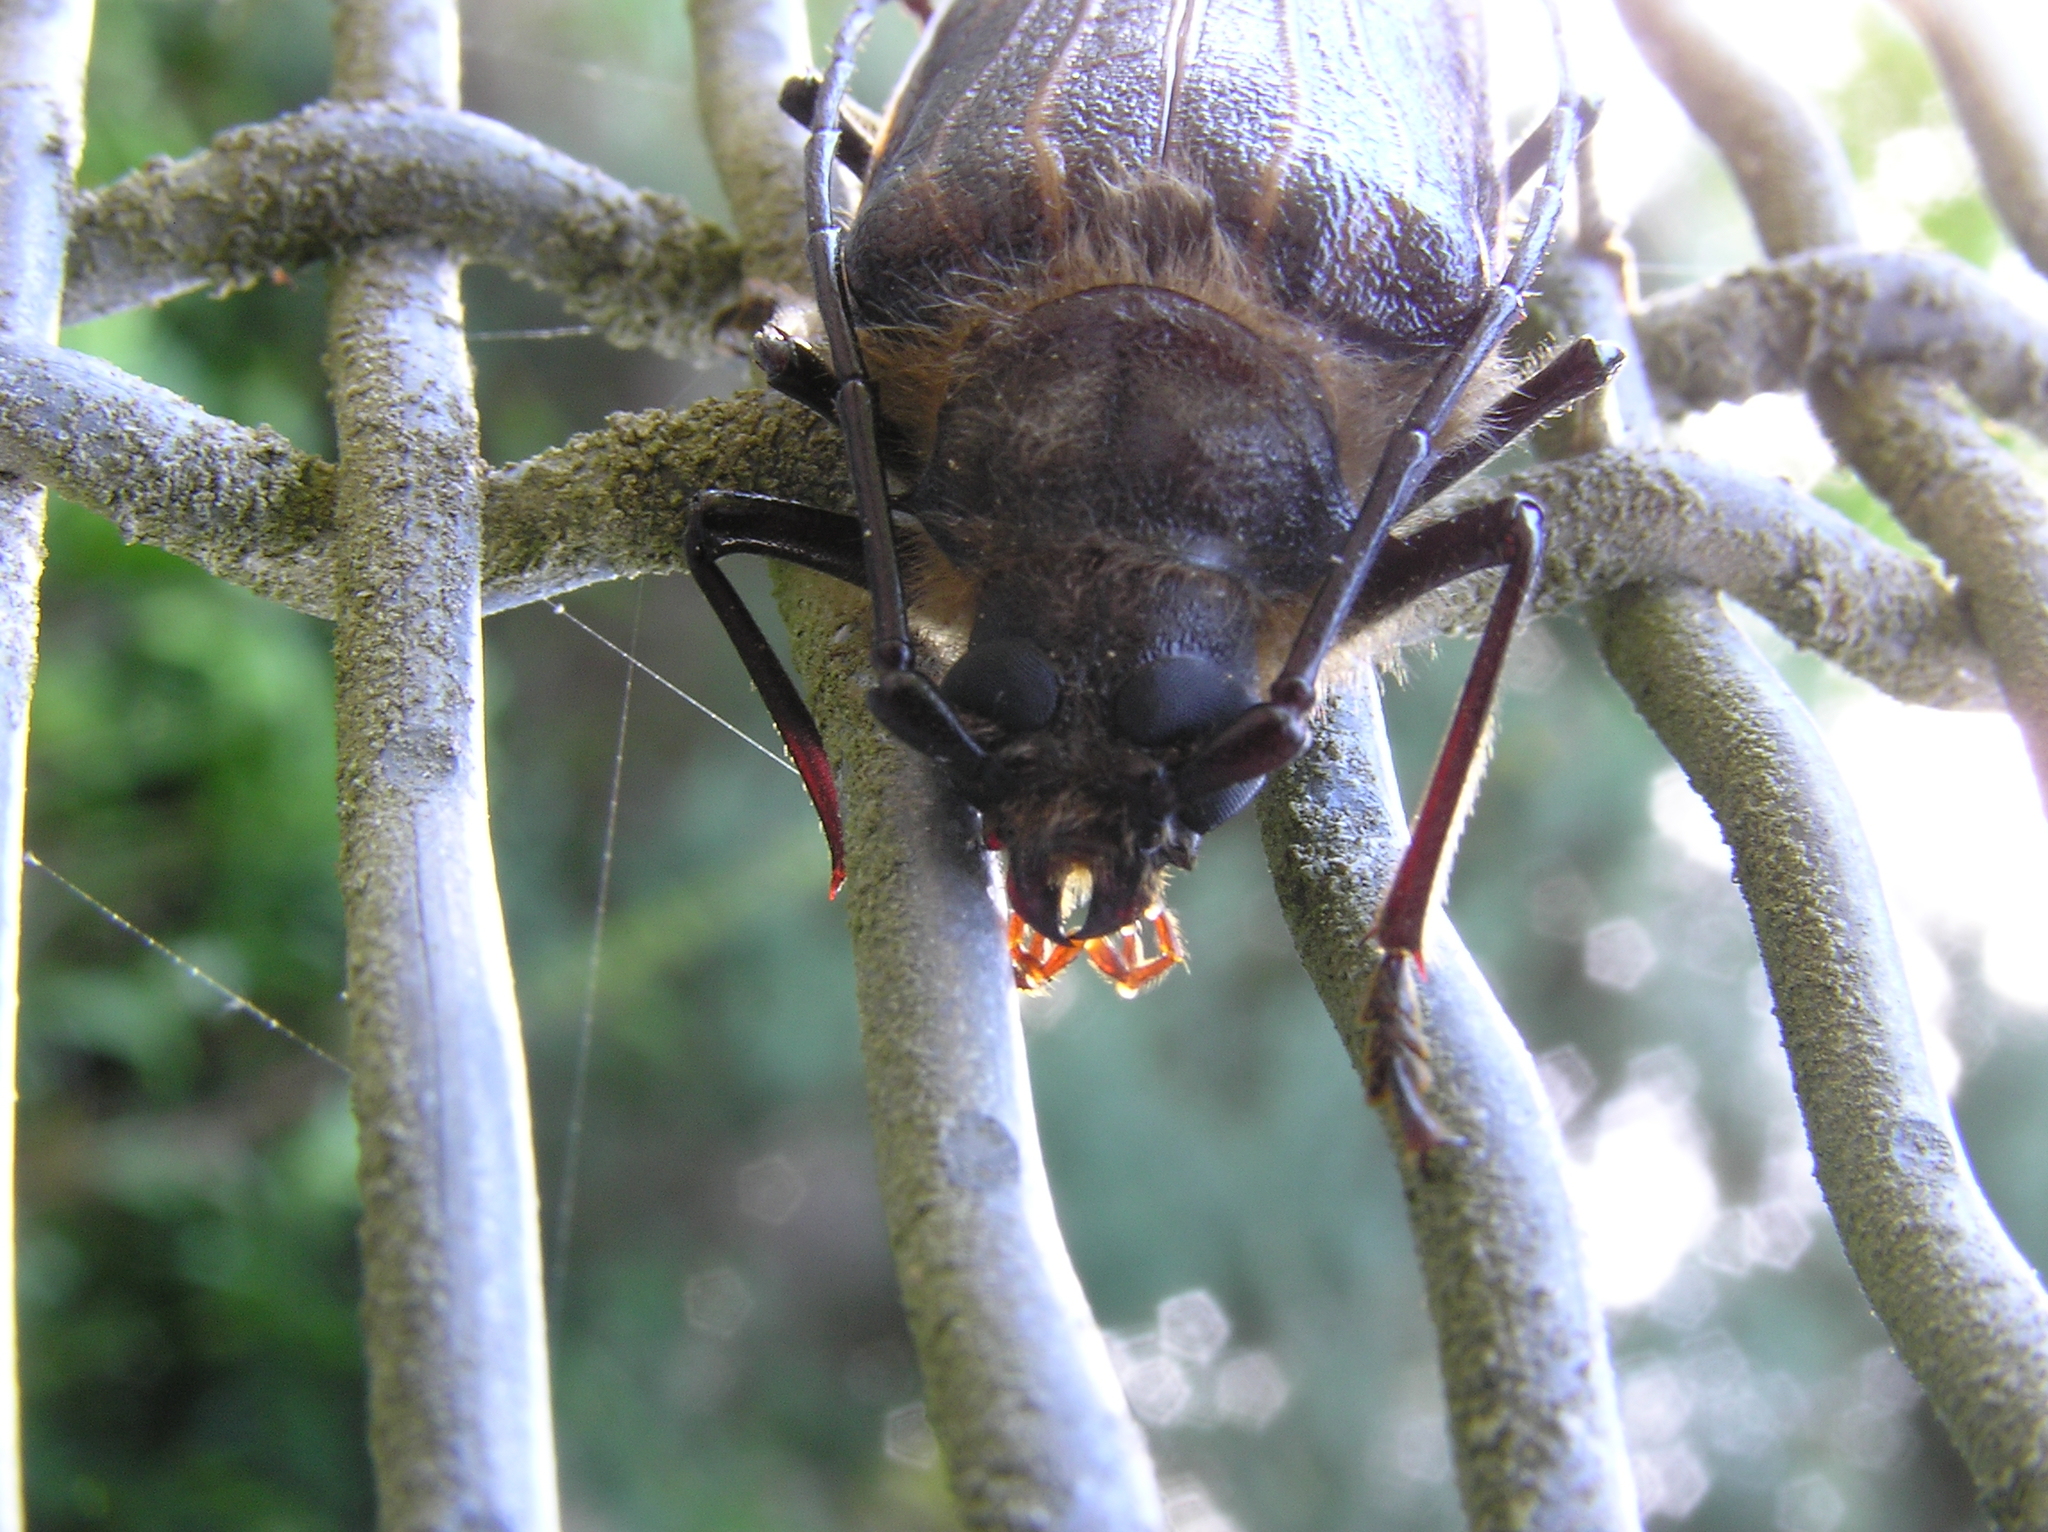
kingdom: Animalia
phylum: Arthropoda
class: Insecta
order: Coleoptera
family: Cerambycidae
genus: Prionoplus
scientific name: Prionoplus reticularis
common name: Huhu beetle
